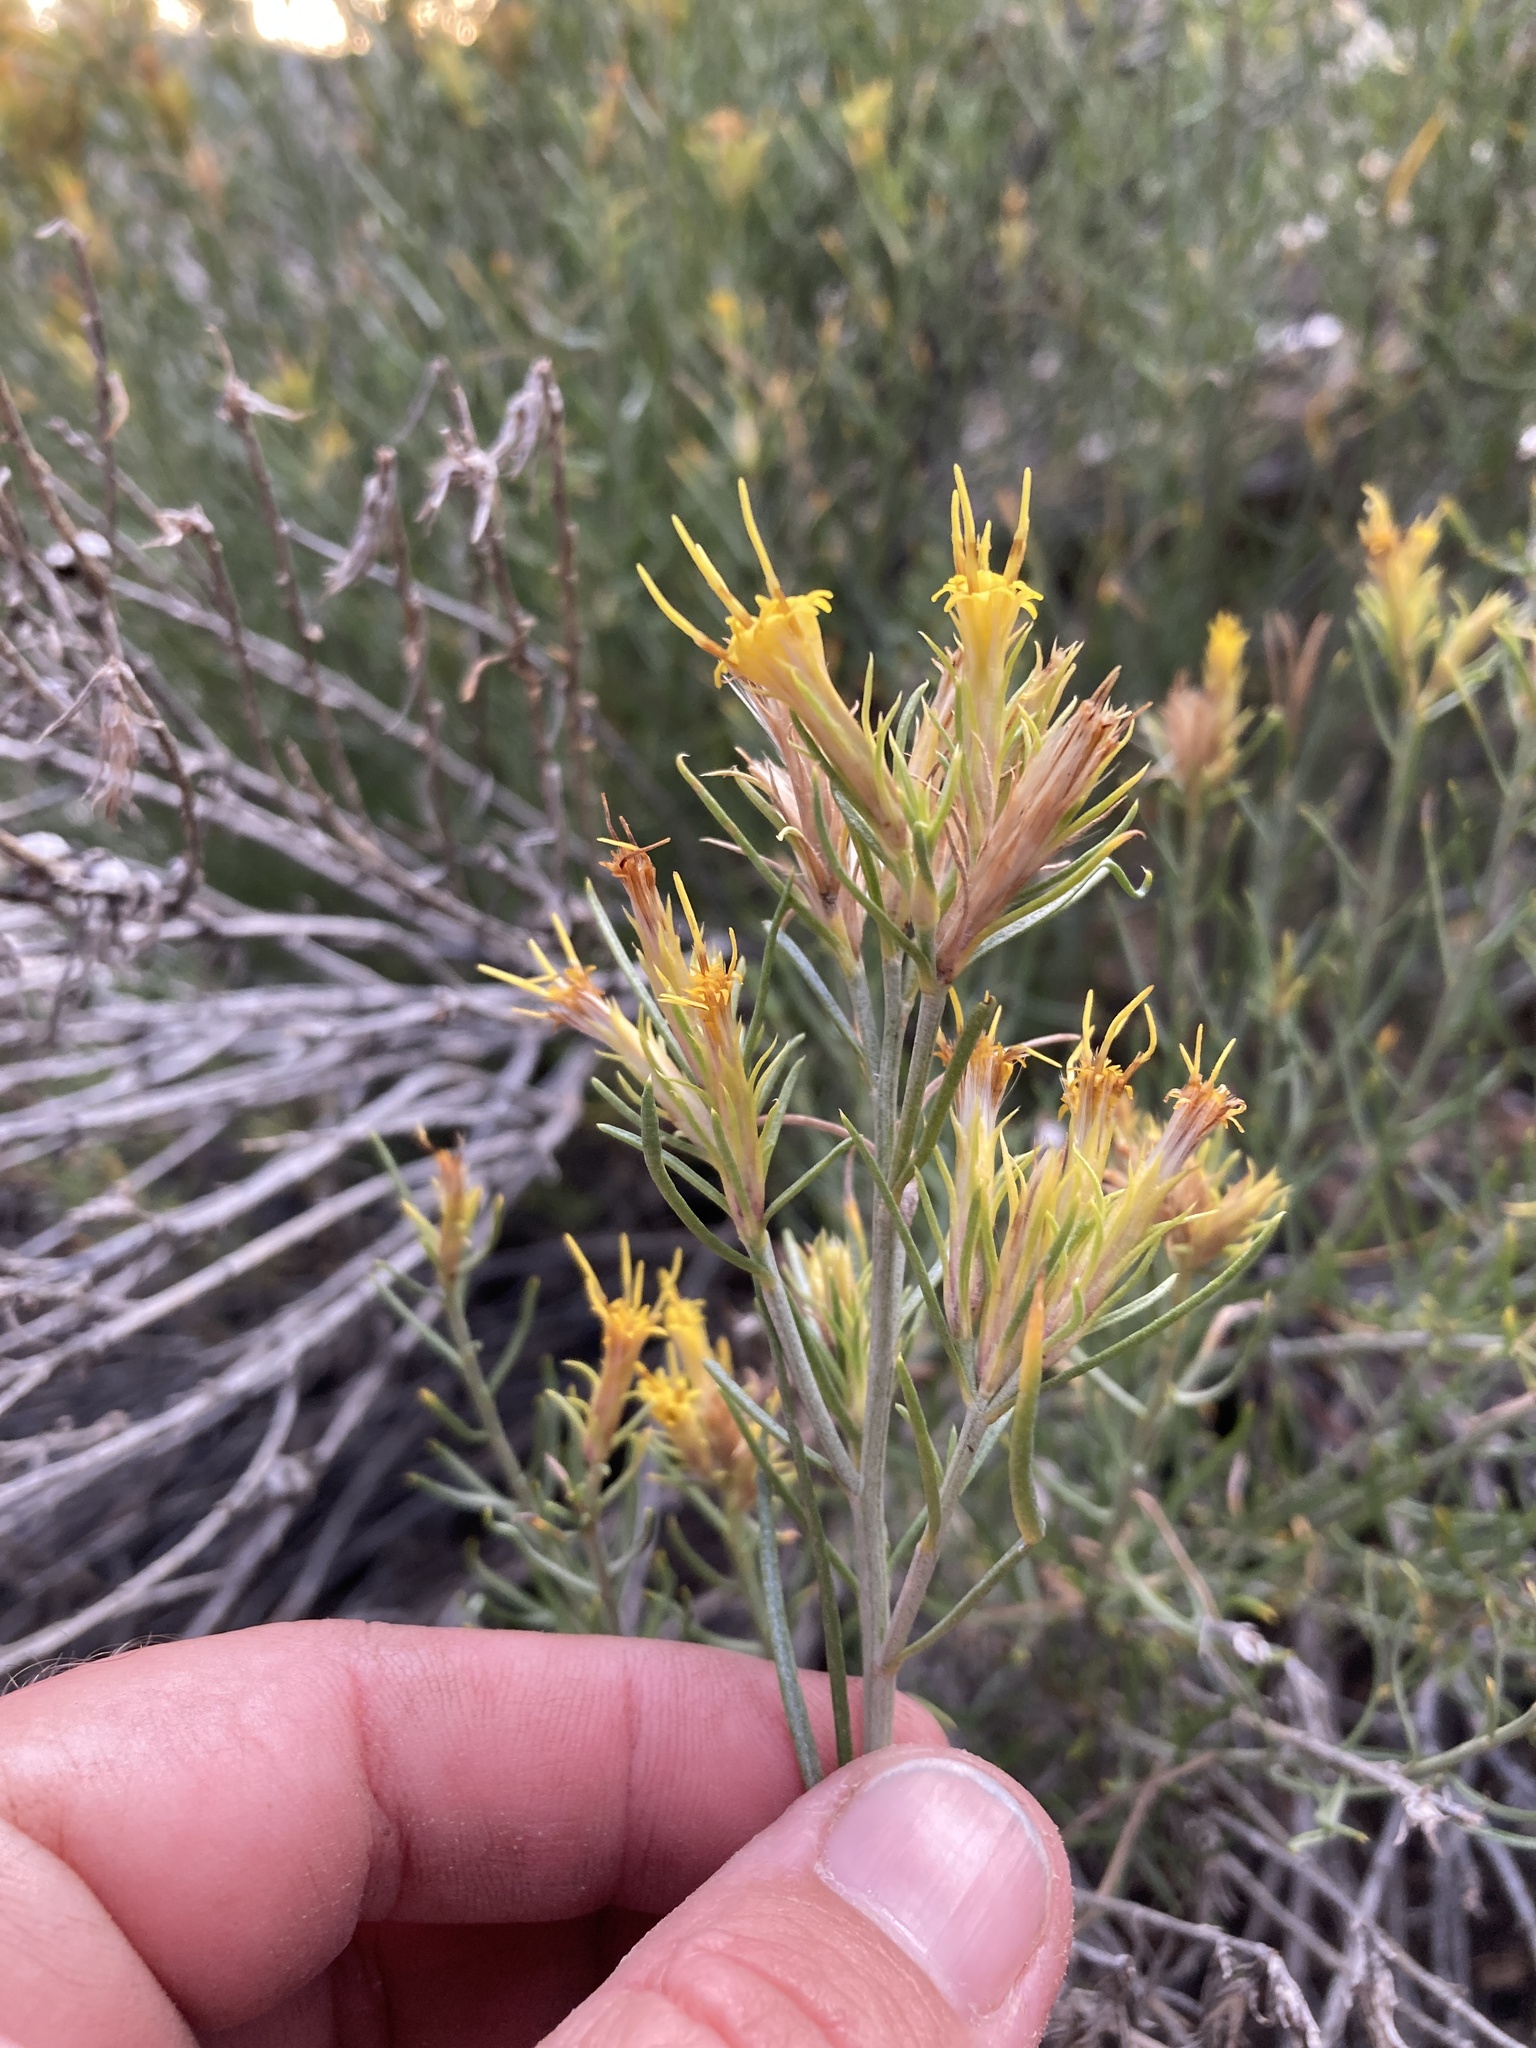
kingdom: Plantae
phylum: Tracheophyta
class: Magnoliopsida
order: Asterales
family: Asteraceae
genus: Ericameria
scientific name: Ericameria parryi
